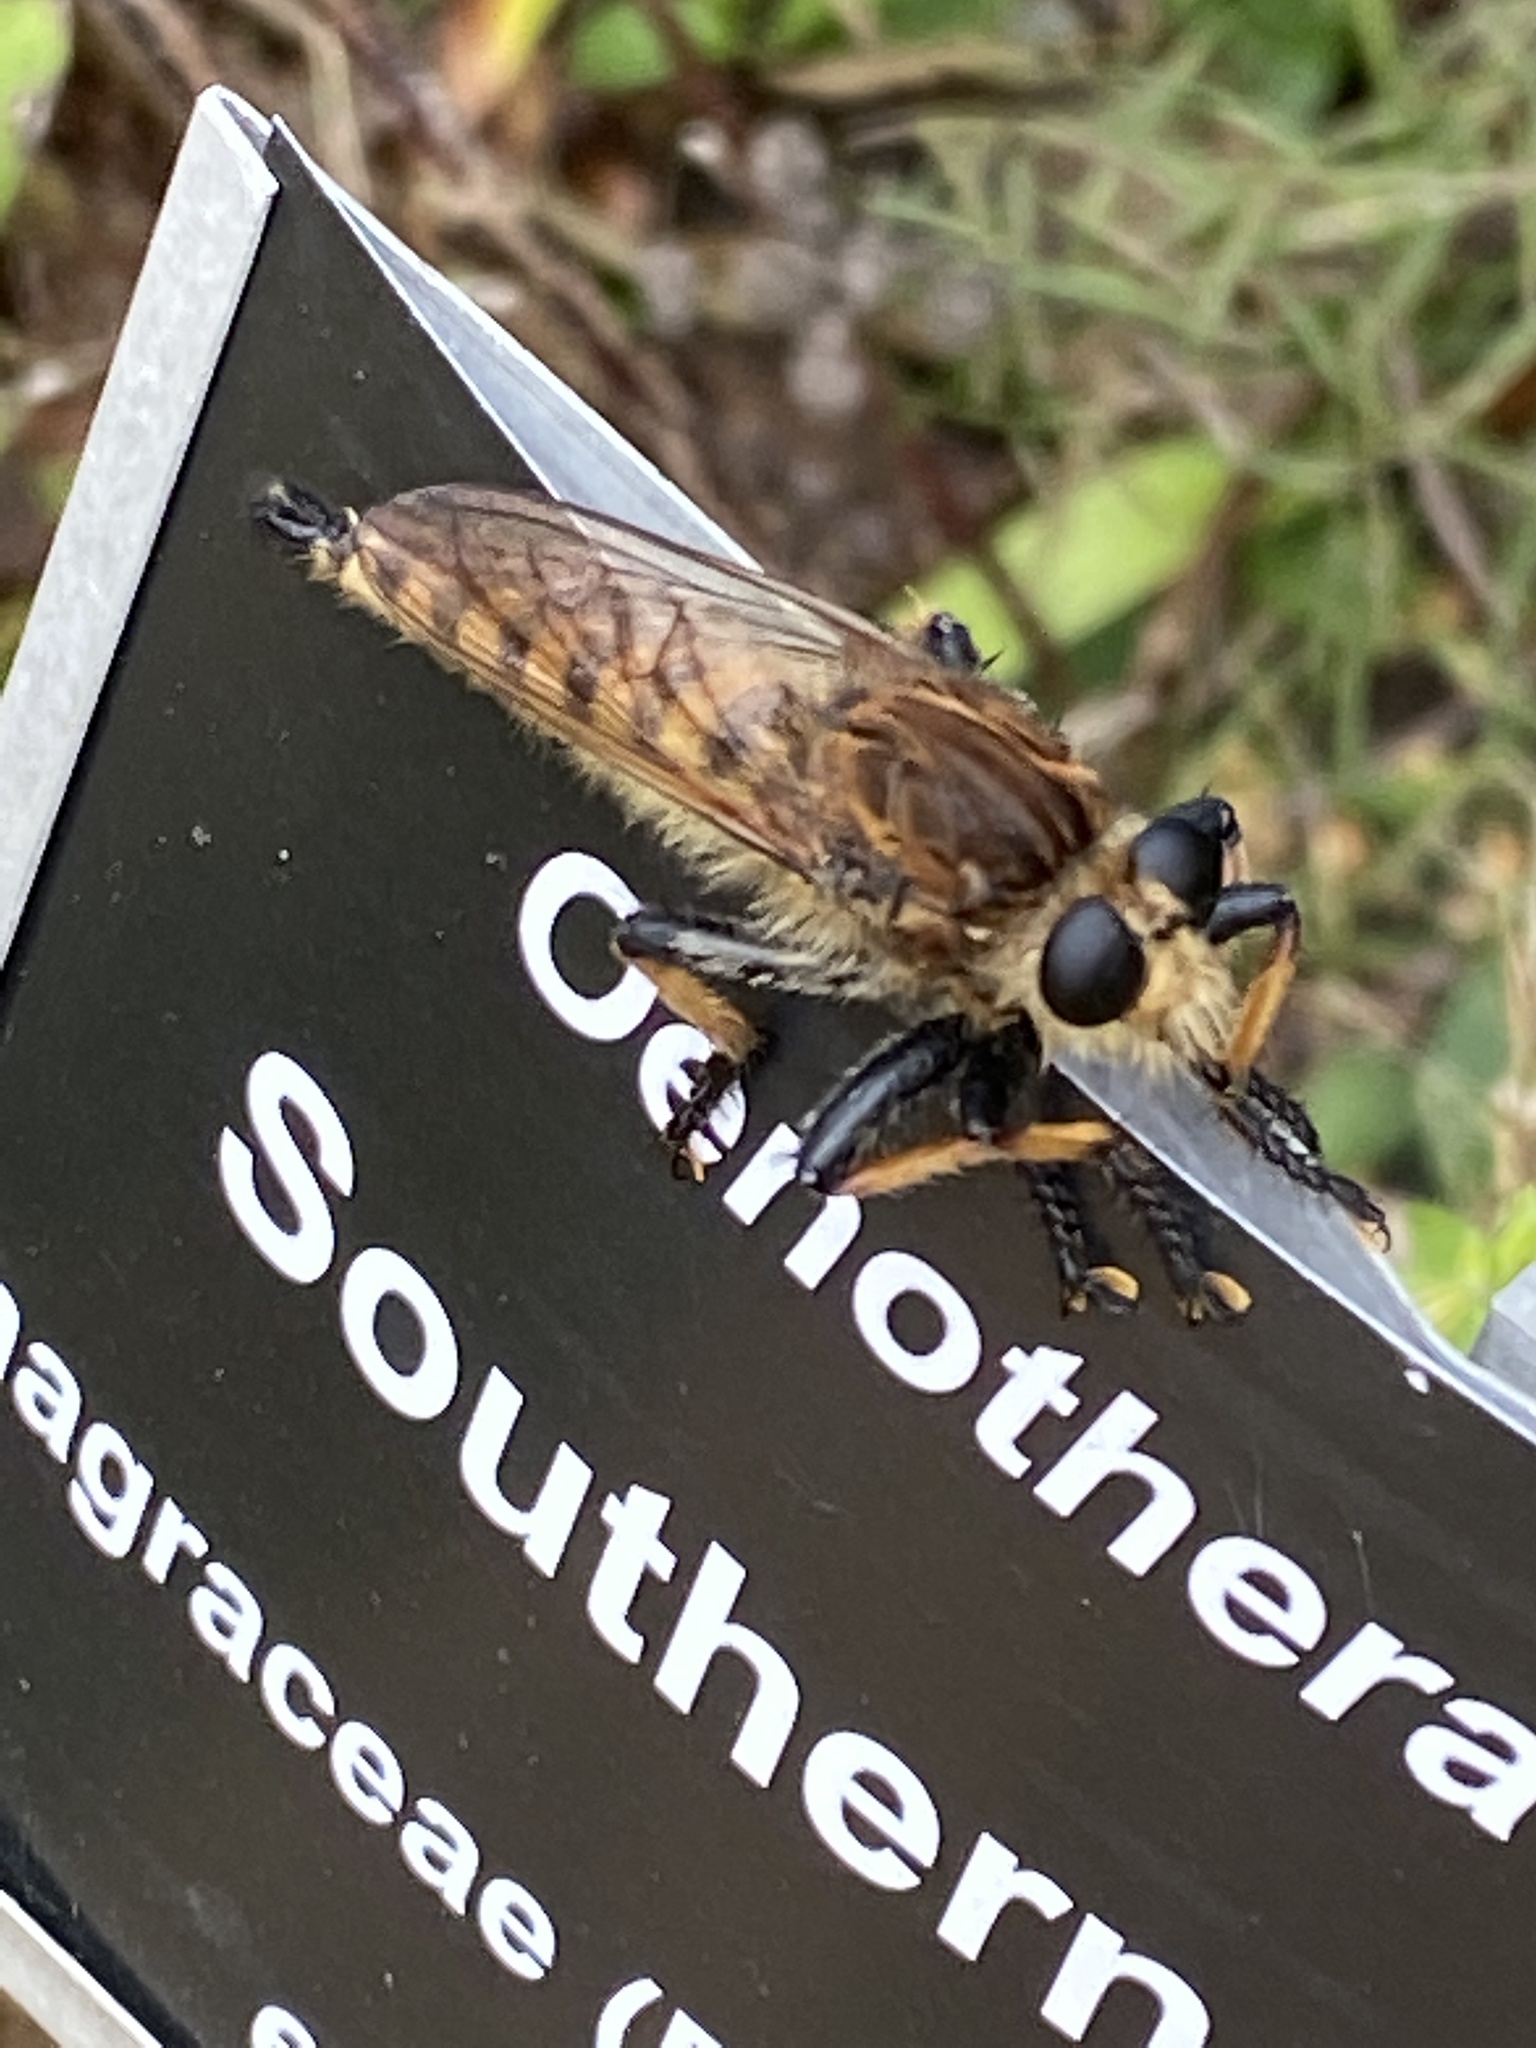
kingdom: Animalia
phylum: Arthropoda
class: Insecta
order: Diptera
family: Asilidae
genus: Promachus
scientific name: Promachus rufipes
